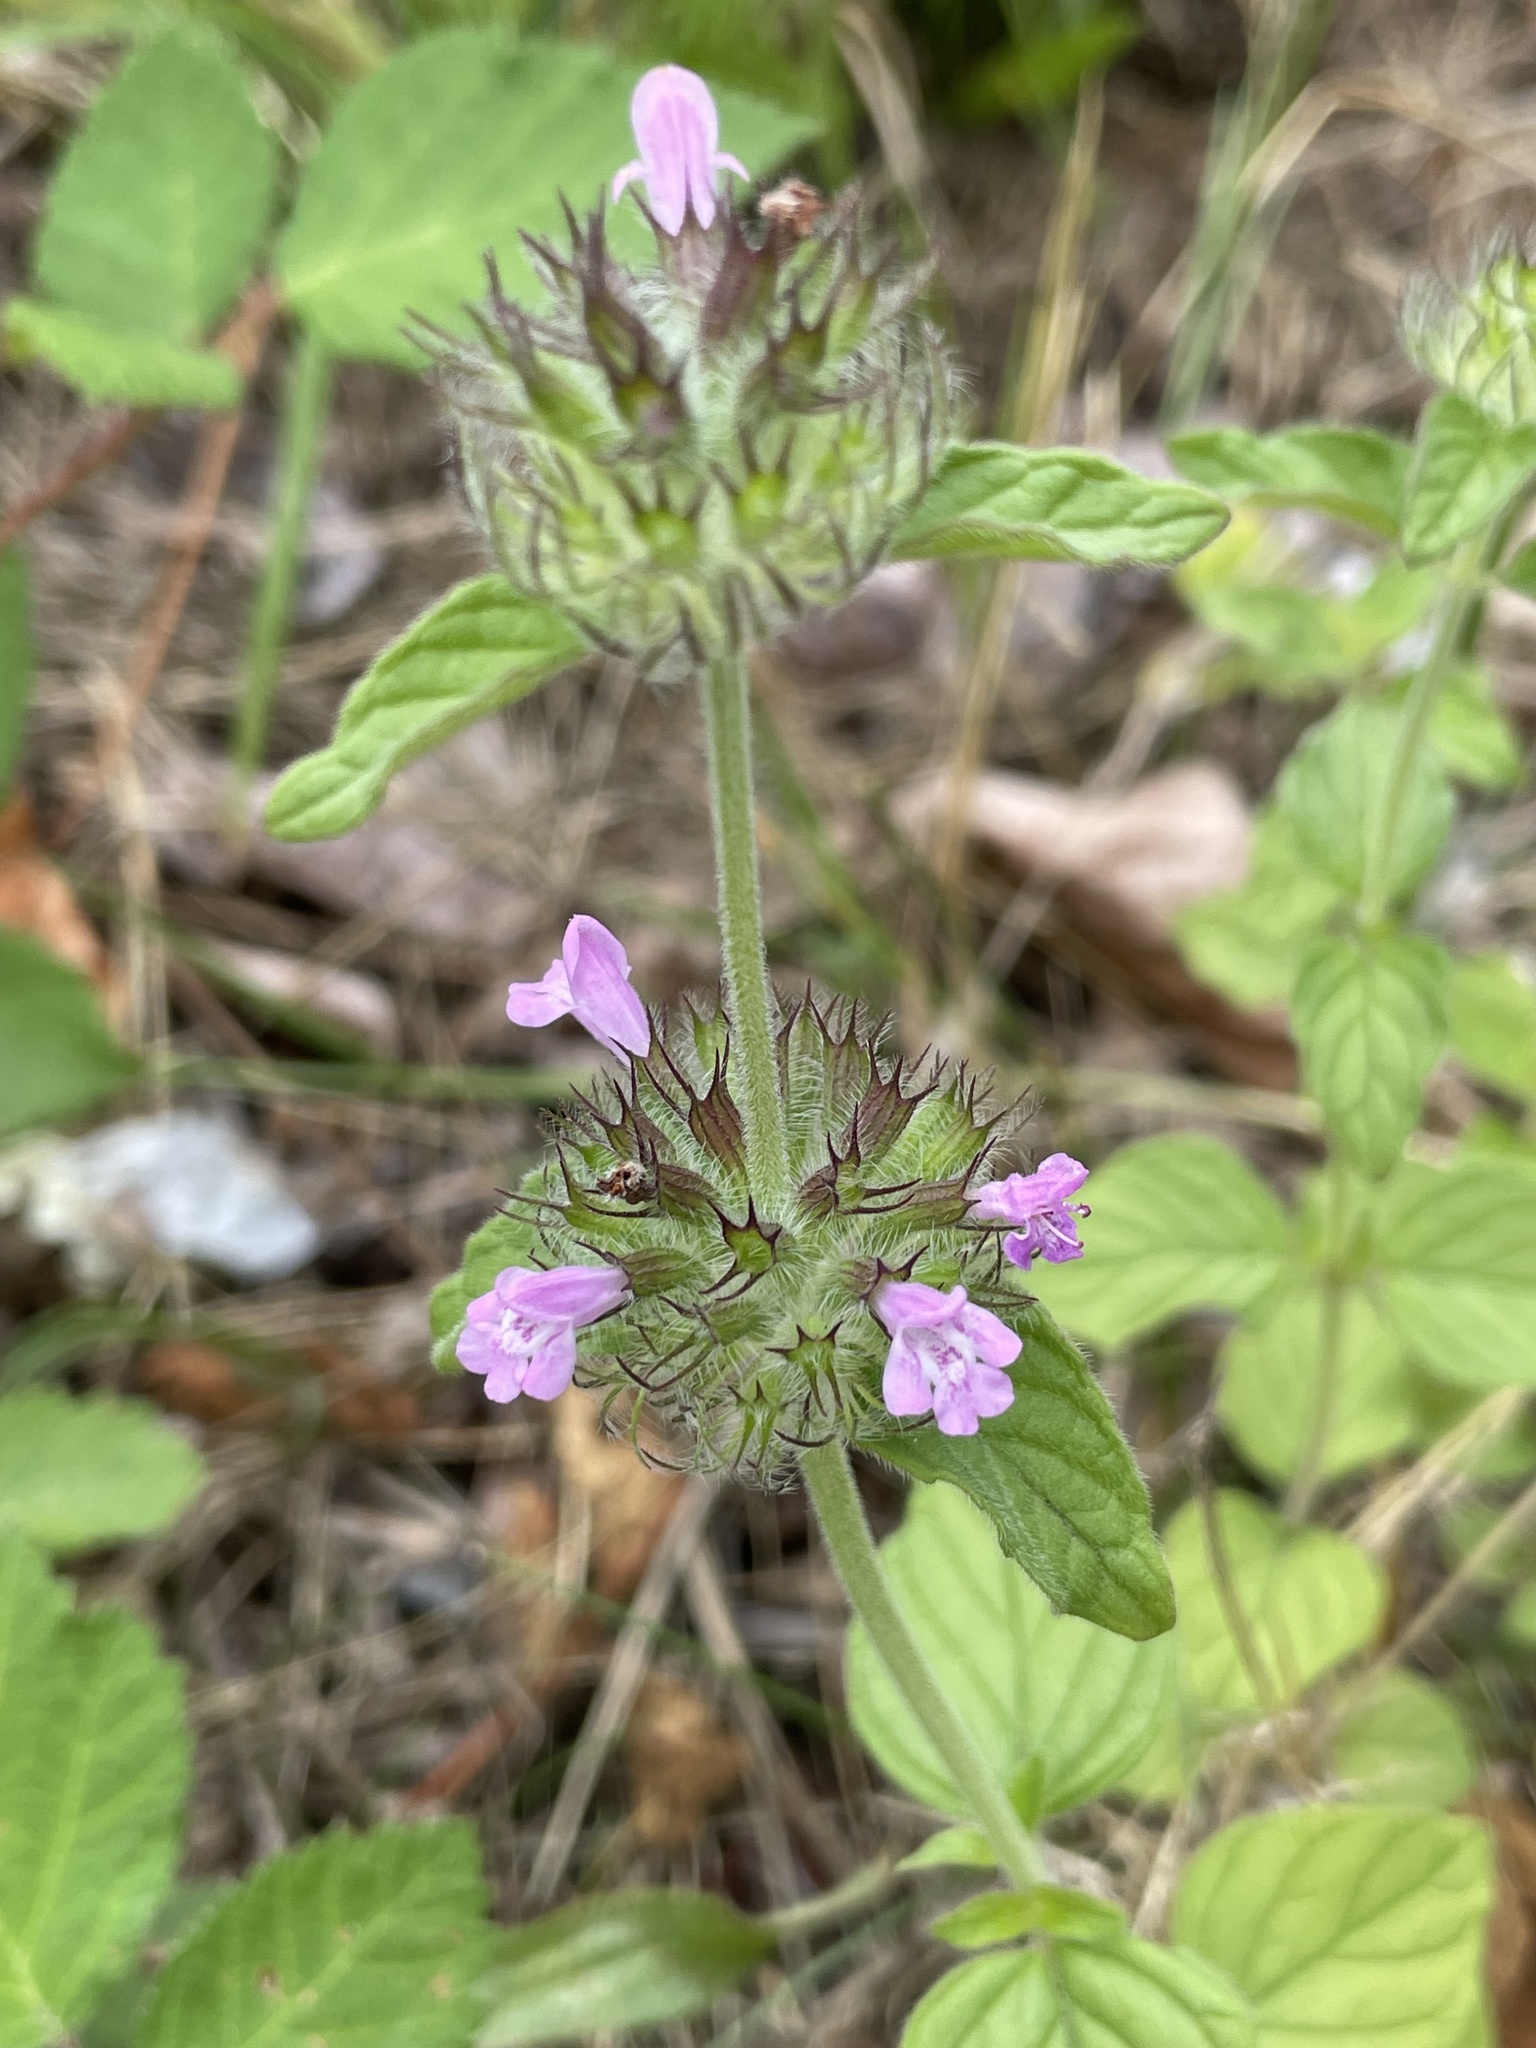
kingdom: Plantae
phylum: Tracheophyta
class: Magnoliopsida
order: Lamiales
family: Lamiaceae
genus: Clinopodium
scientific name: Clinopodium vulgare
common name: Wild basil
